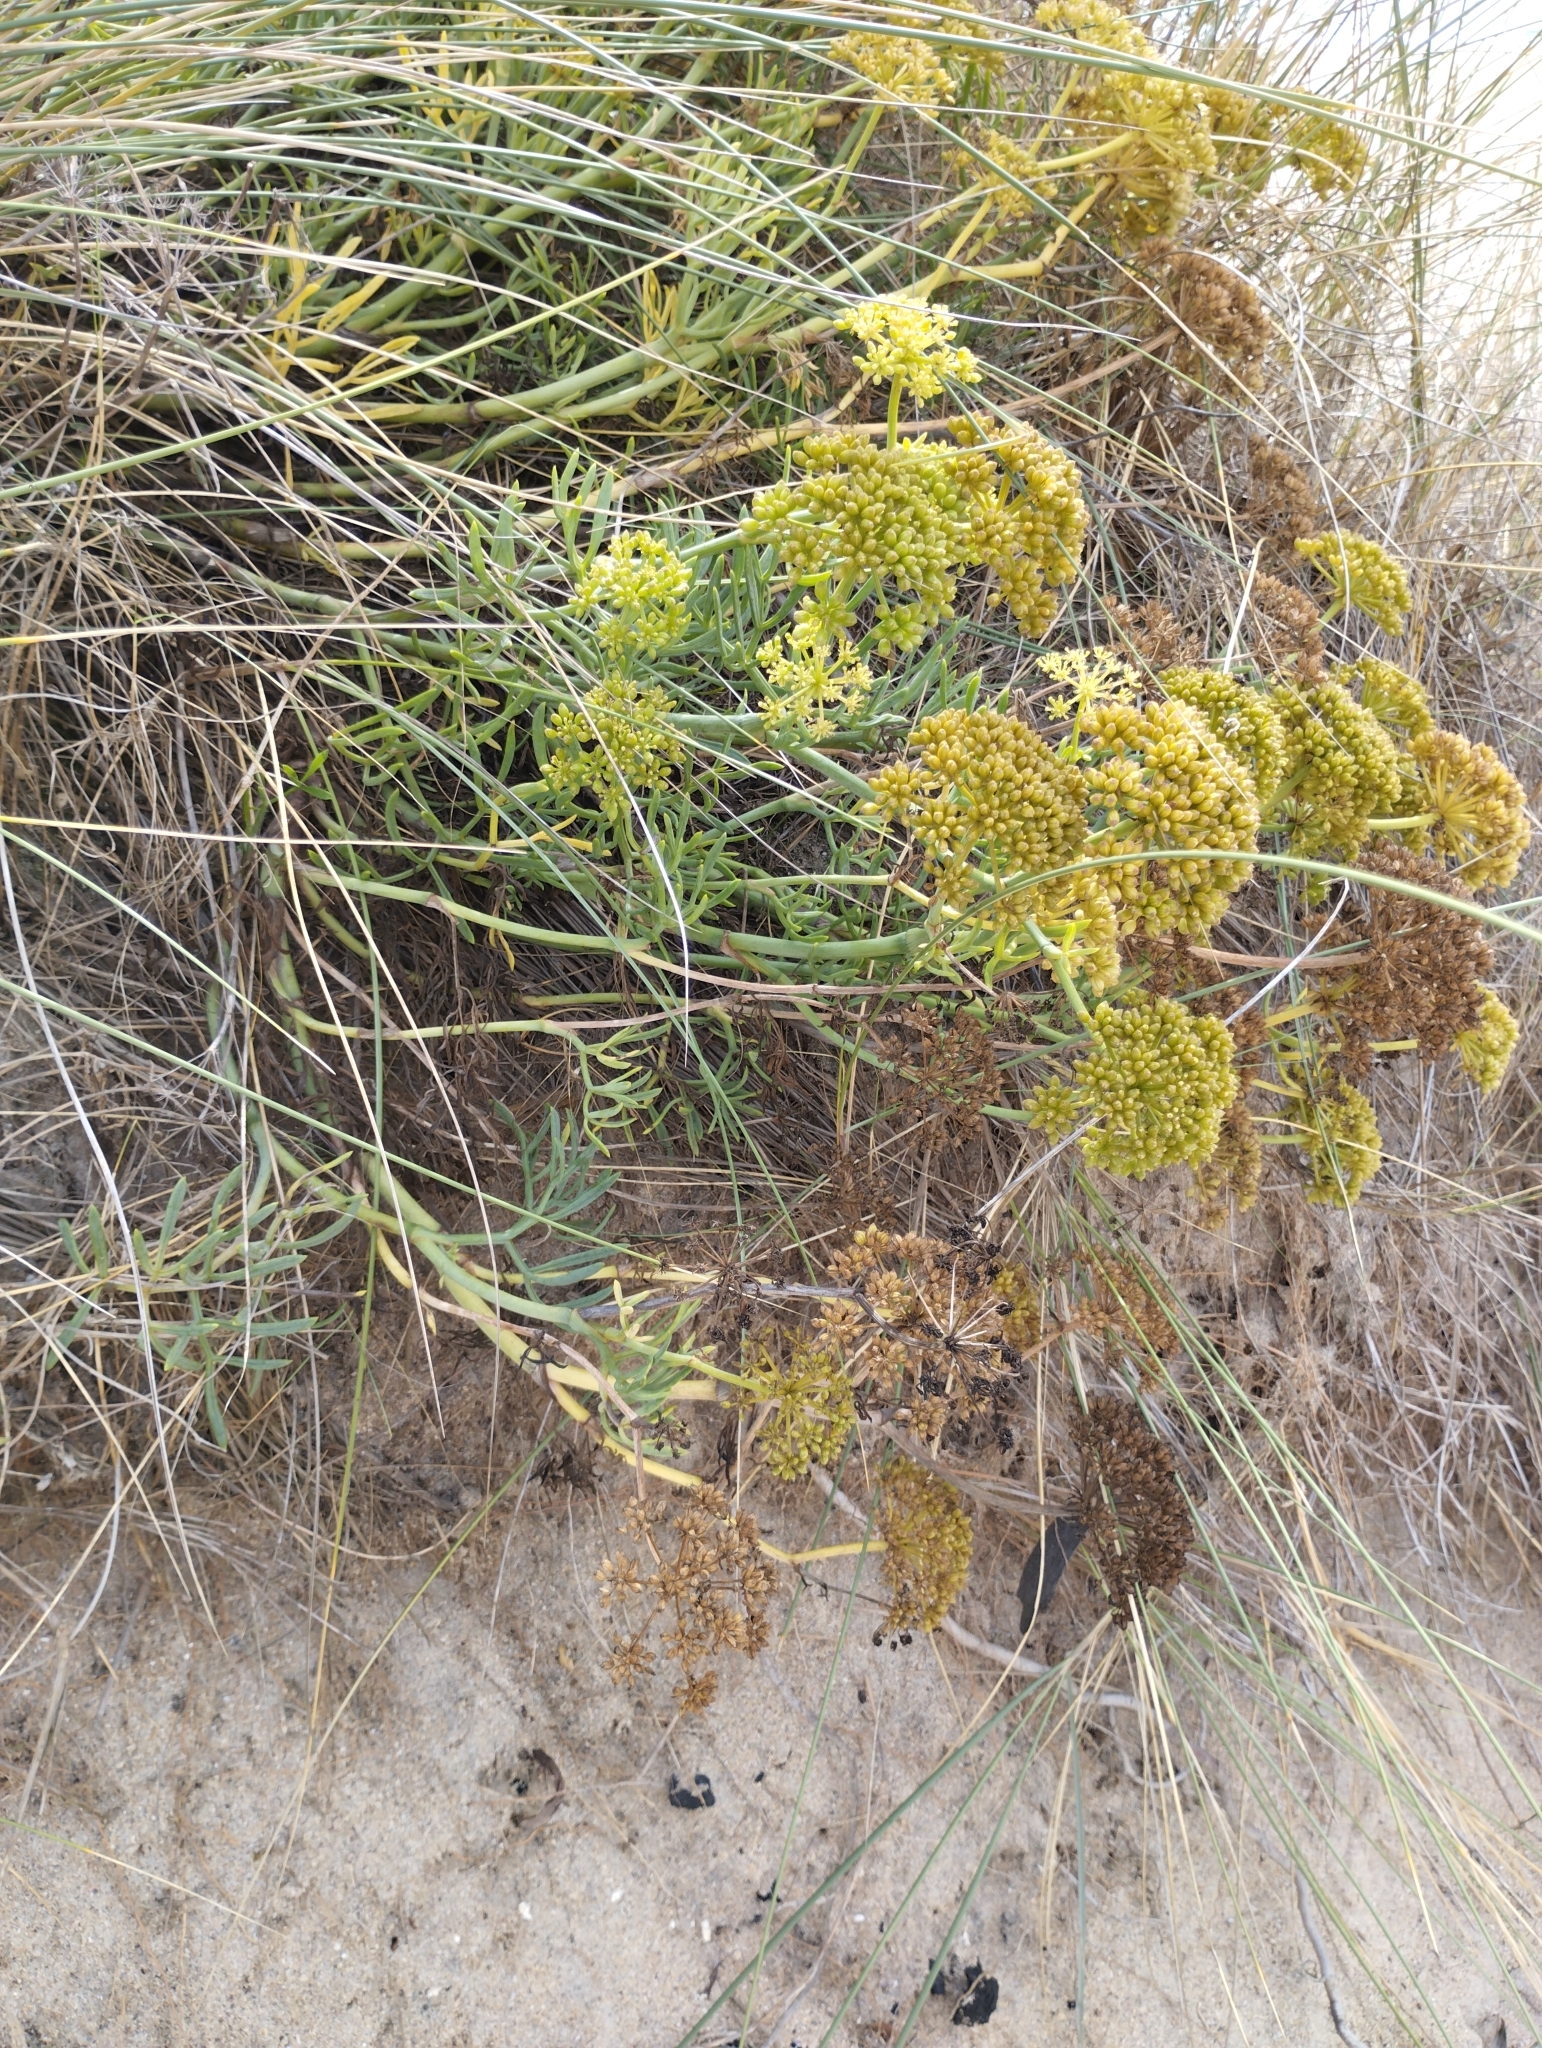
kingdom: Plantae
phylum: Tracheophyta
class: Magnoliopsida
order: Apiales
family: Apiaceae
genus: Crithmum
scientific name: Crithmum maritimum
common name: Rock samphire
